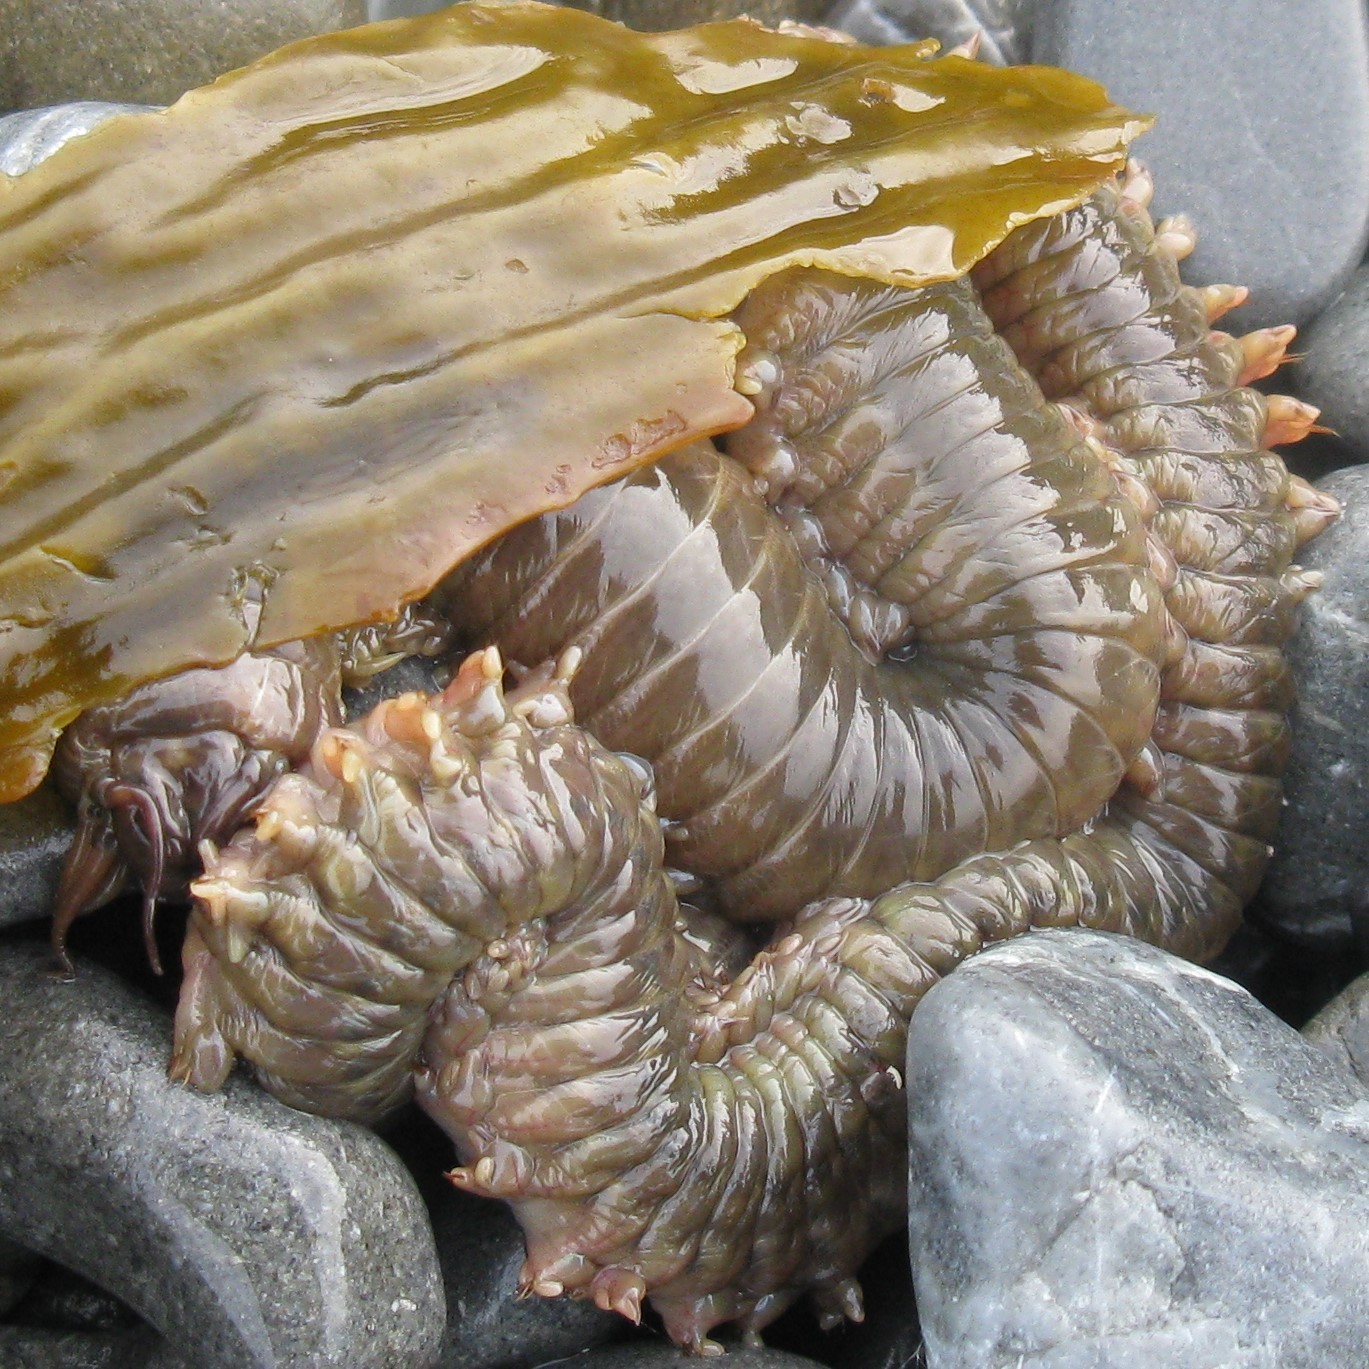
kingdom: Animalia
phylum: Annelida
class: Polychaeta
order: Phyllodocida
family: Nereididae
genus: Perinereis
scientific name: Perinereis amblyodonta
